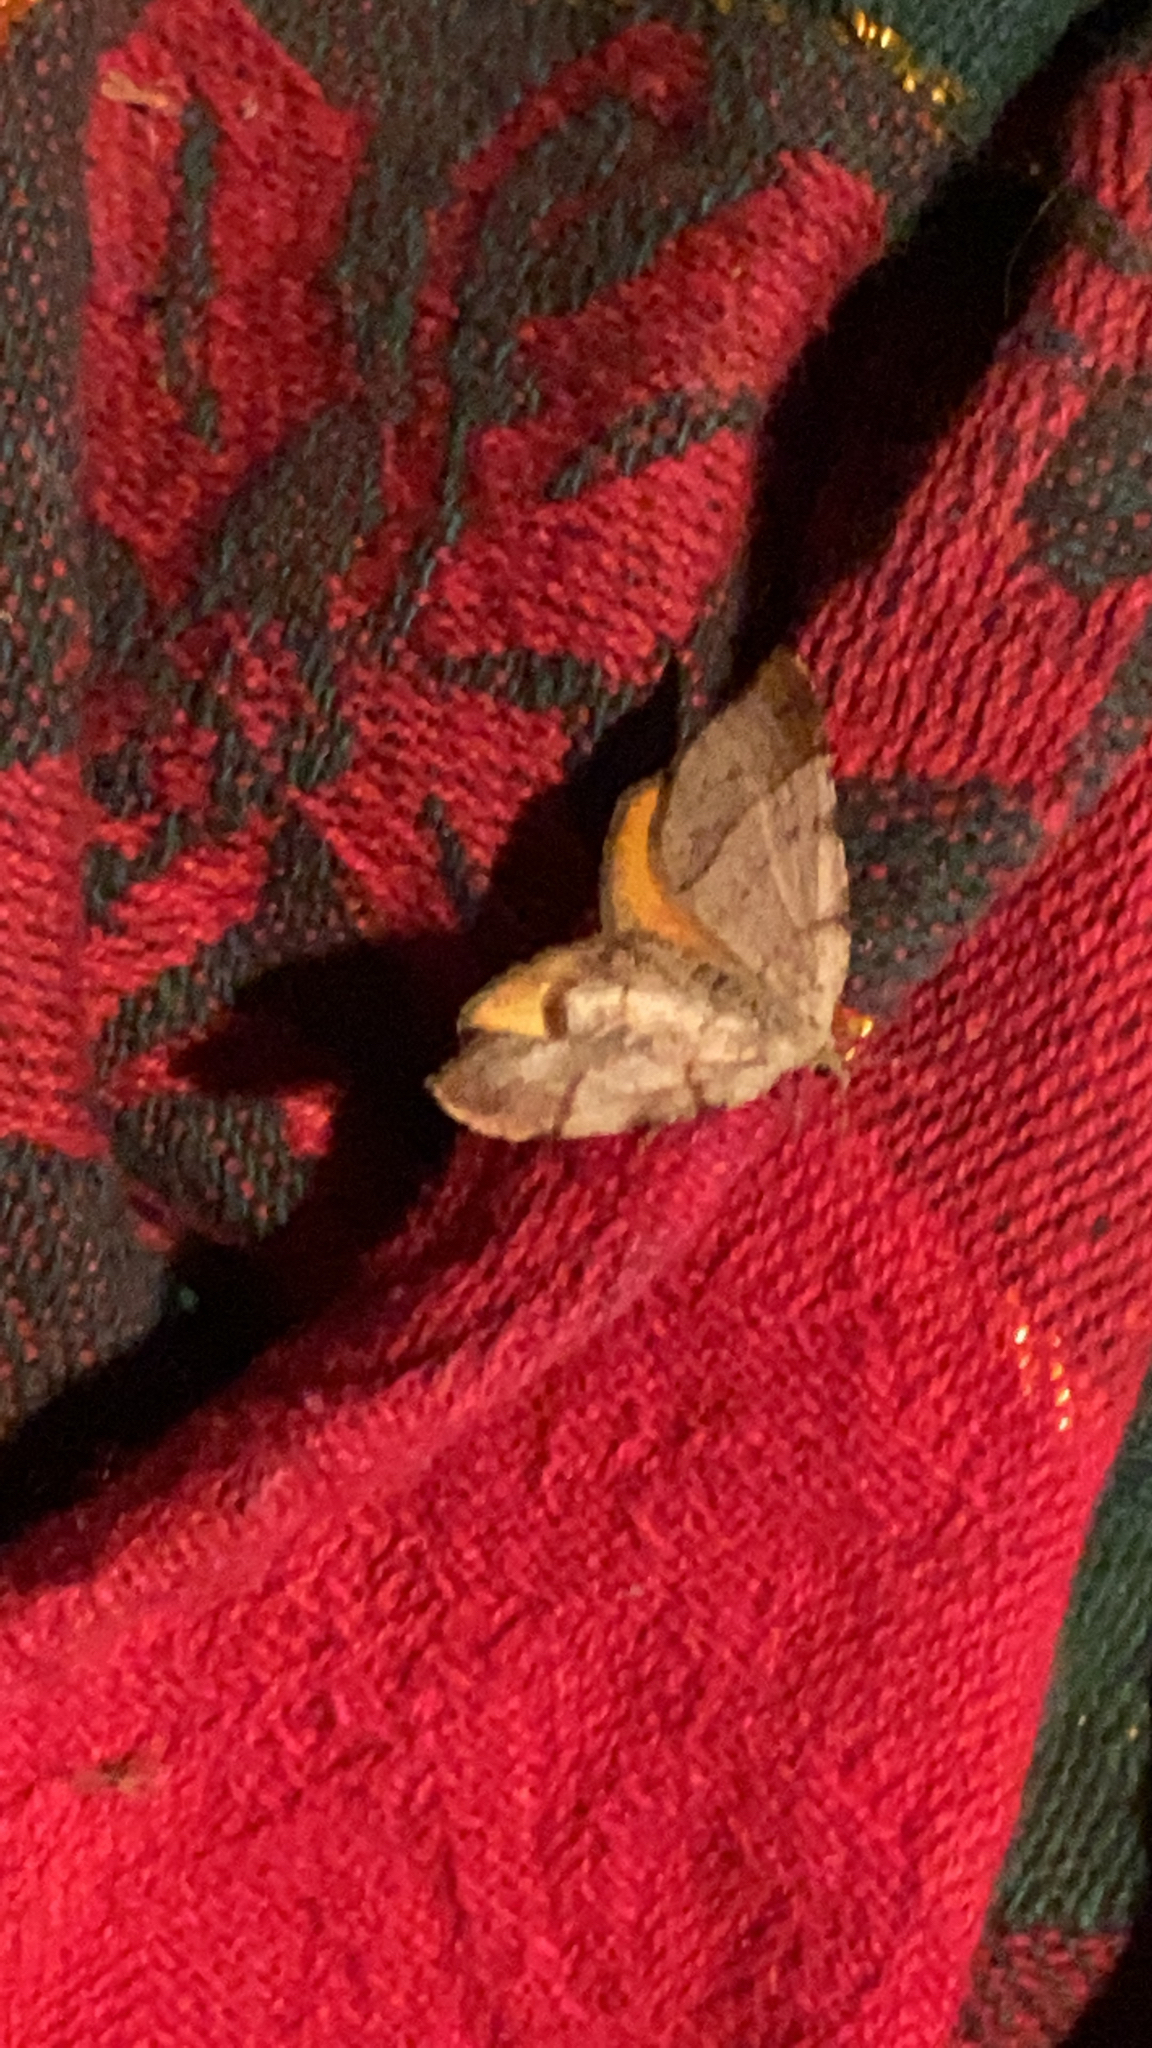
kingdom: Animalia
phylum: Arthropoda
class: Insecta
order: Lepidoptera
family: Geometridae
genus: Mellilla
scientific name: Mellilla xanthometata
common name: Orange wing moth
